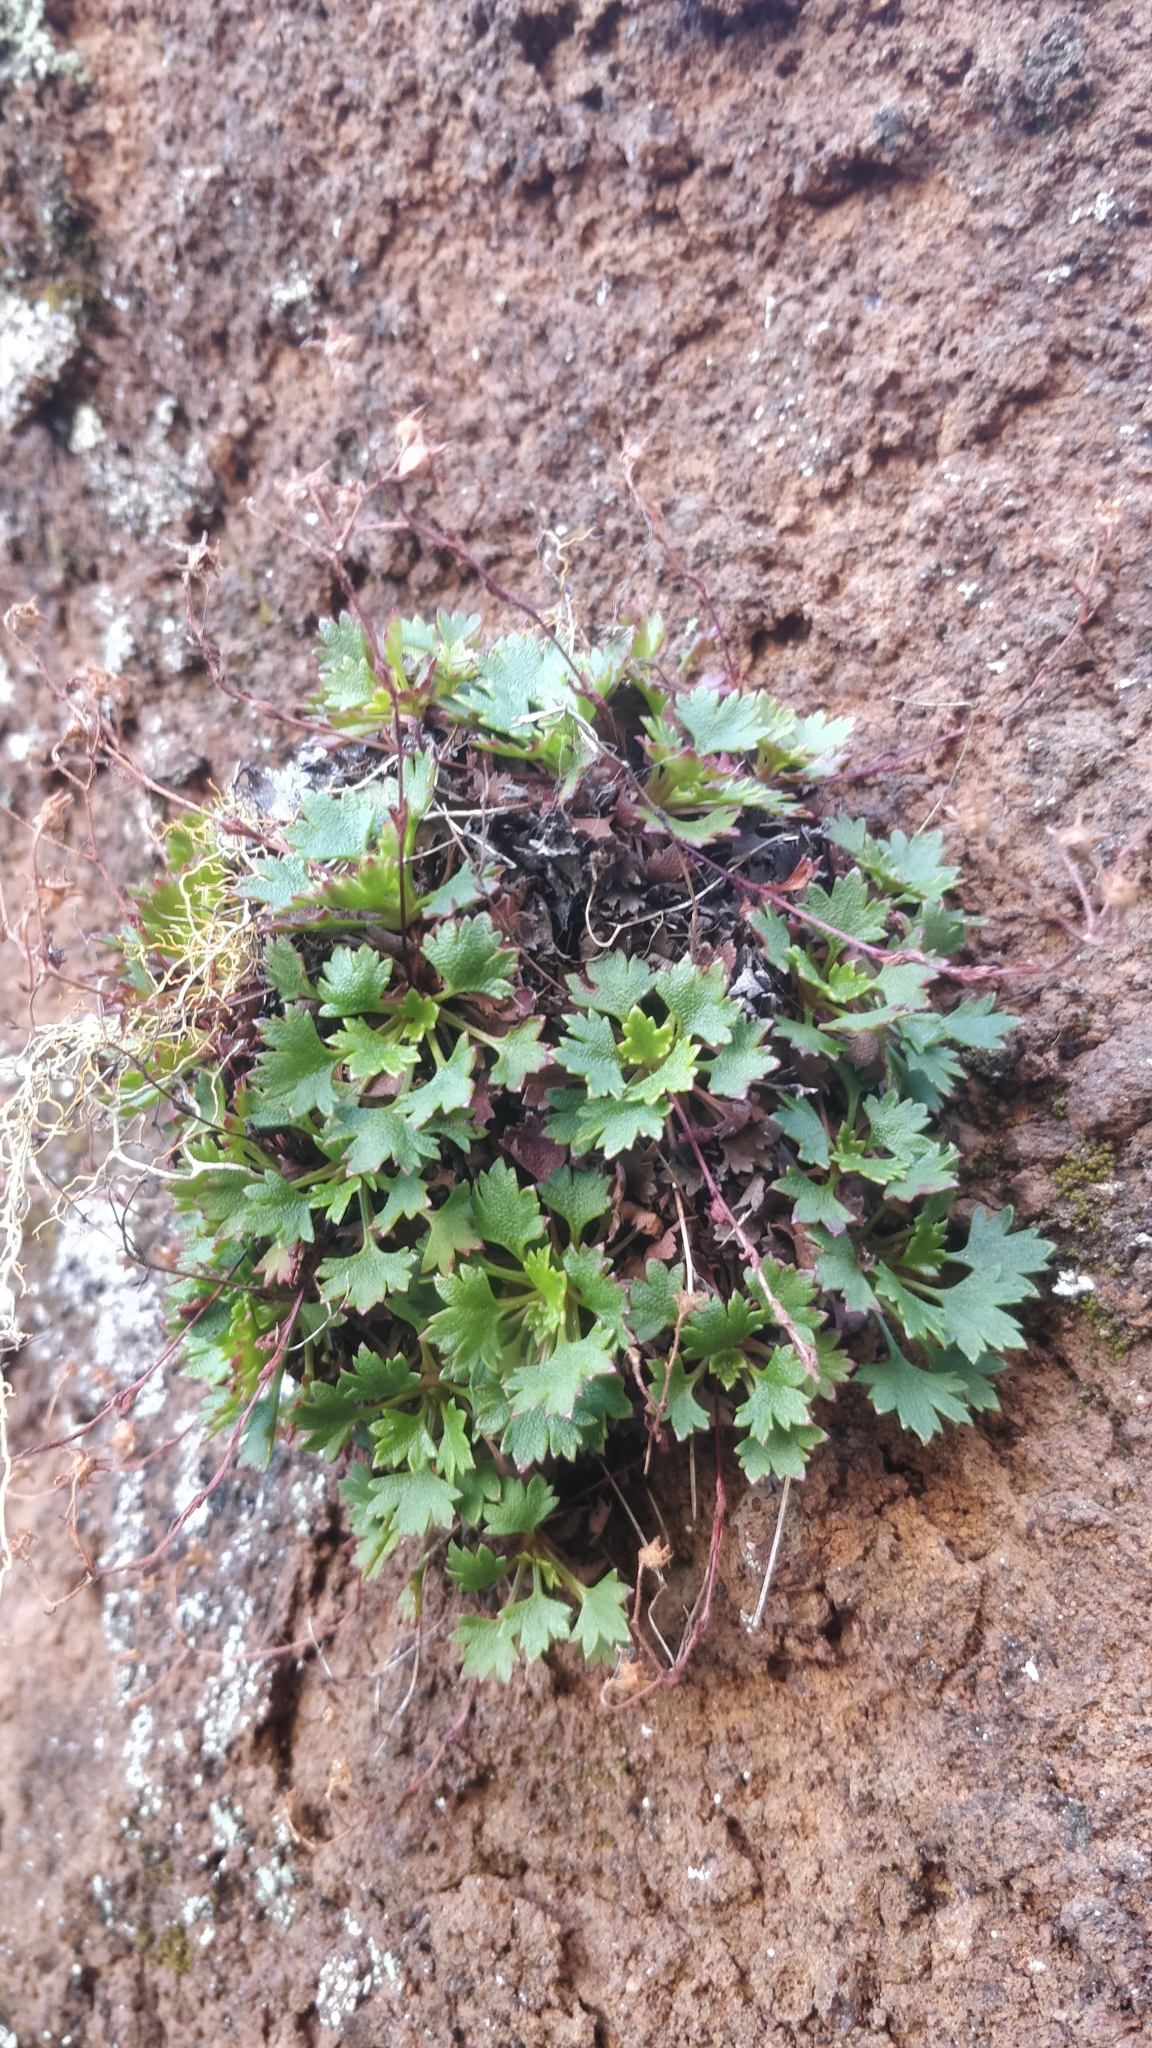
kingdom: Plantae
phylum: Tracheophyta
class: Magnoliopsida
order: Saxifragales
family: Saxifragaceae
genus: Saxifraga
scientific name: Saxifraga maderensis
